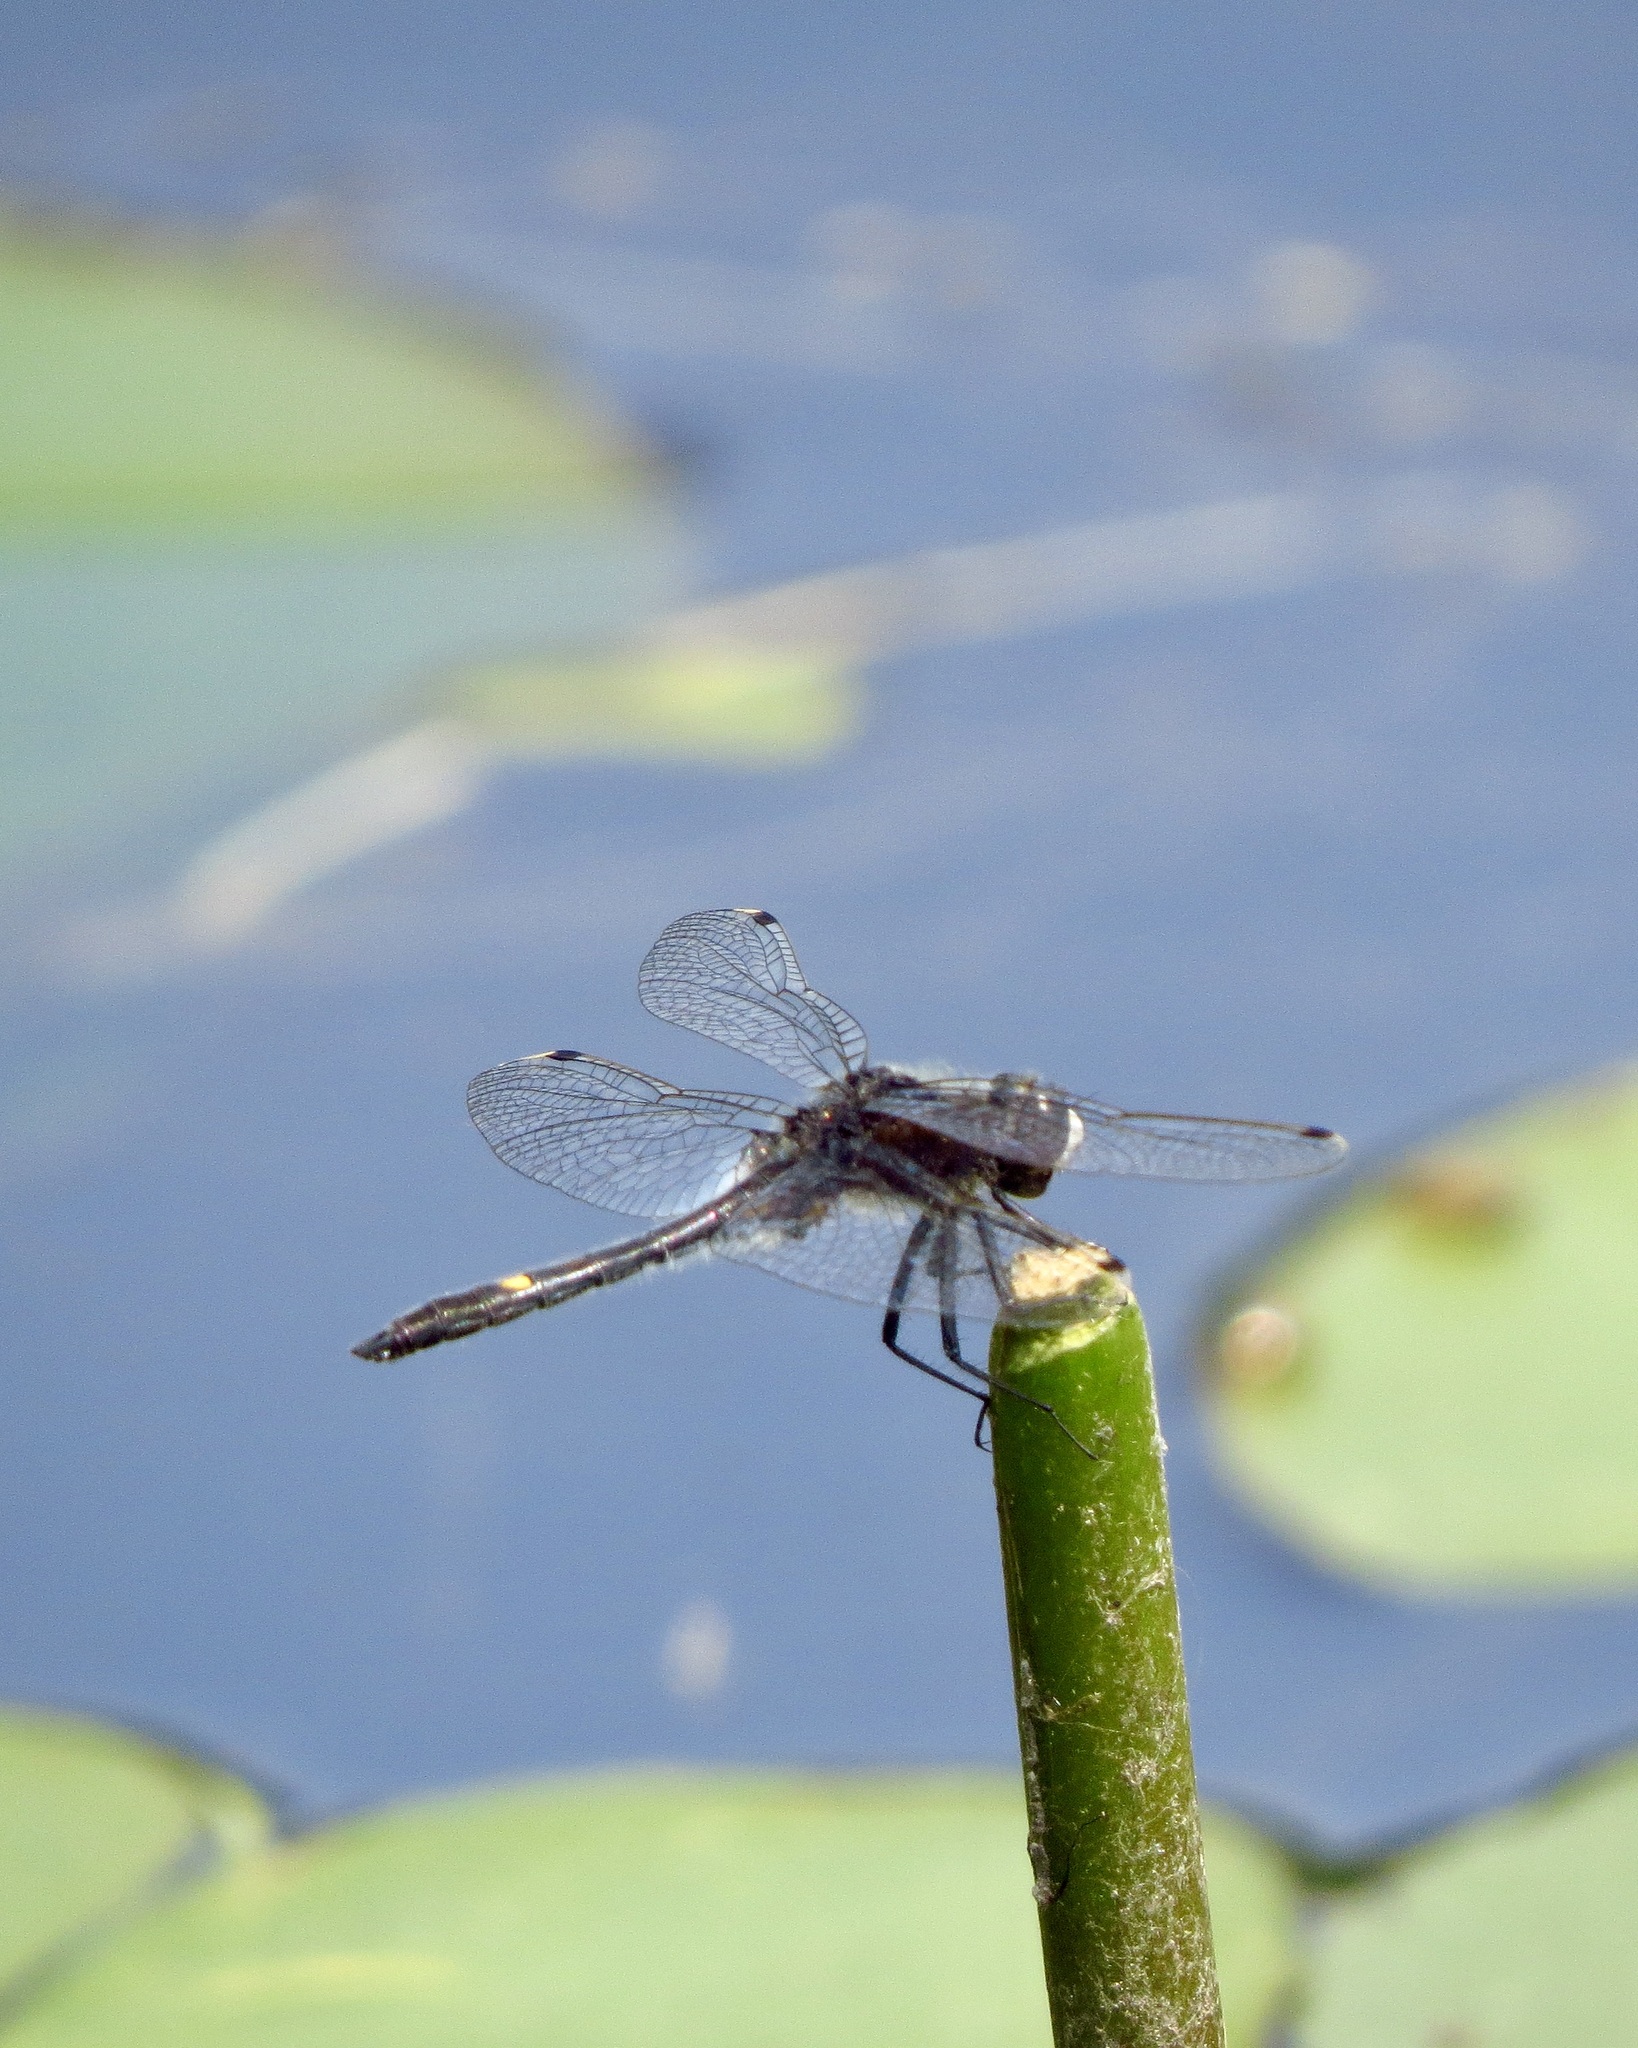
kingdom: Animalia
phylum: Arthropoda
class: Insecta
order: Odonata
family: Libellulidae
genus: Leucorrhinia
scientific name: Leucorrhinia intacta
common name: Dot-tailed whiteface
